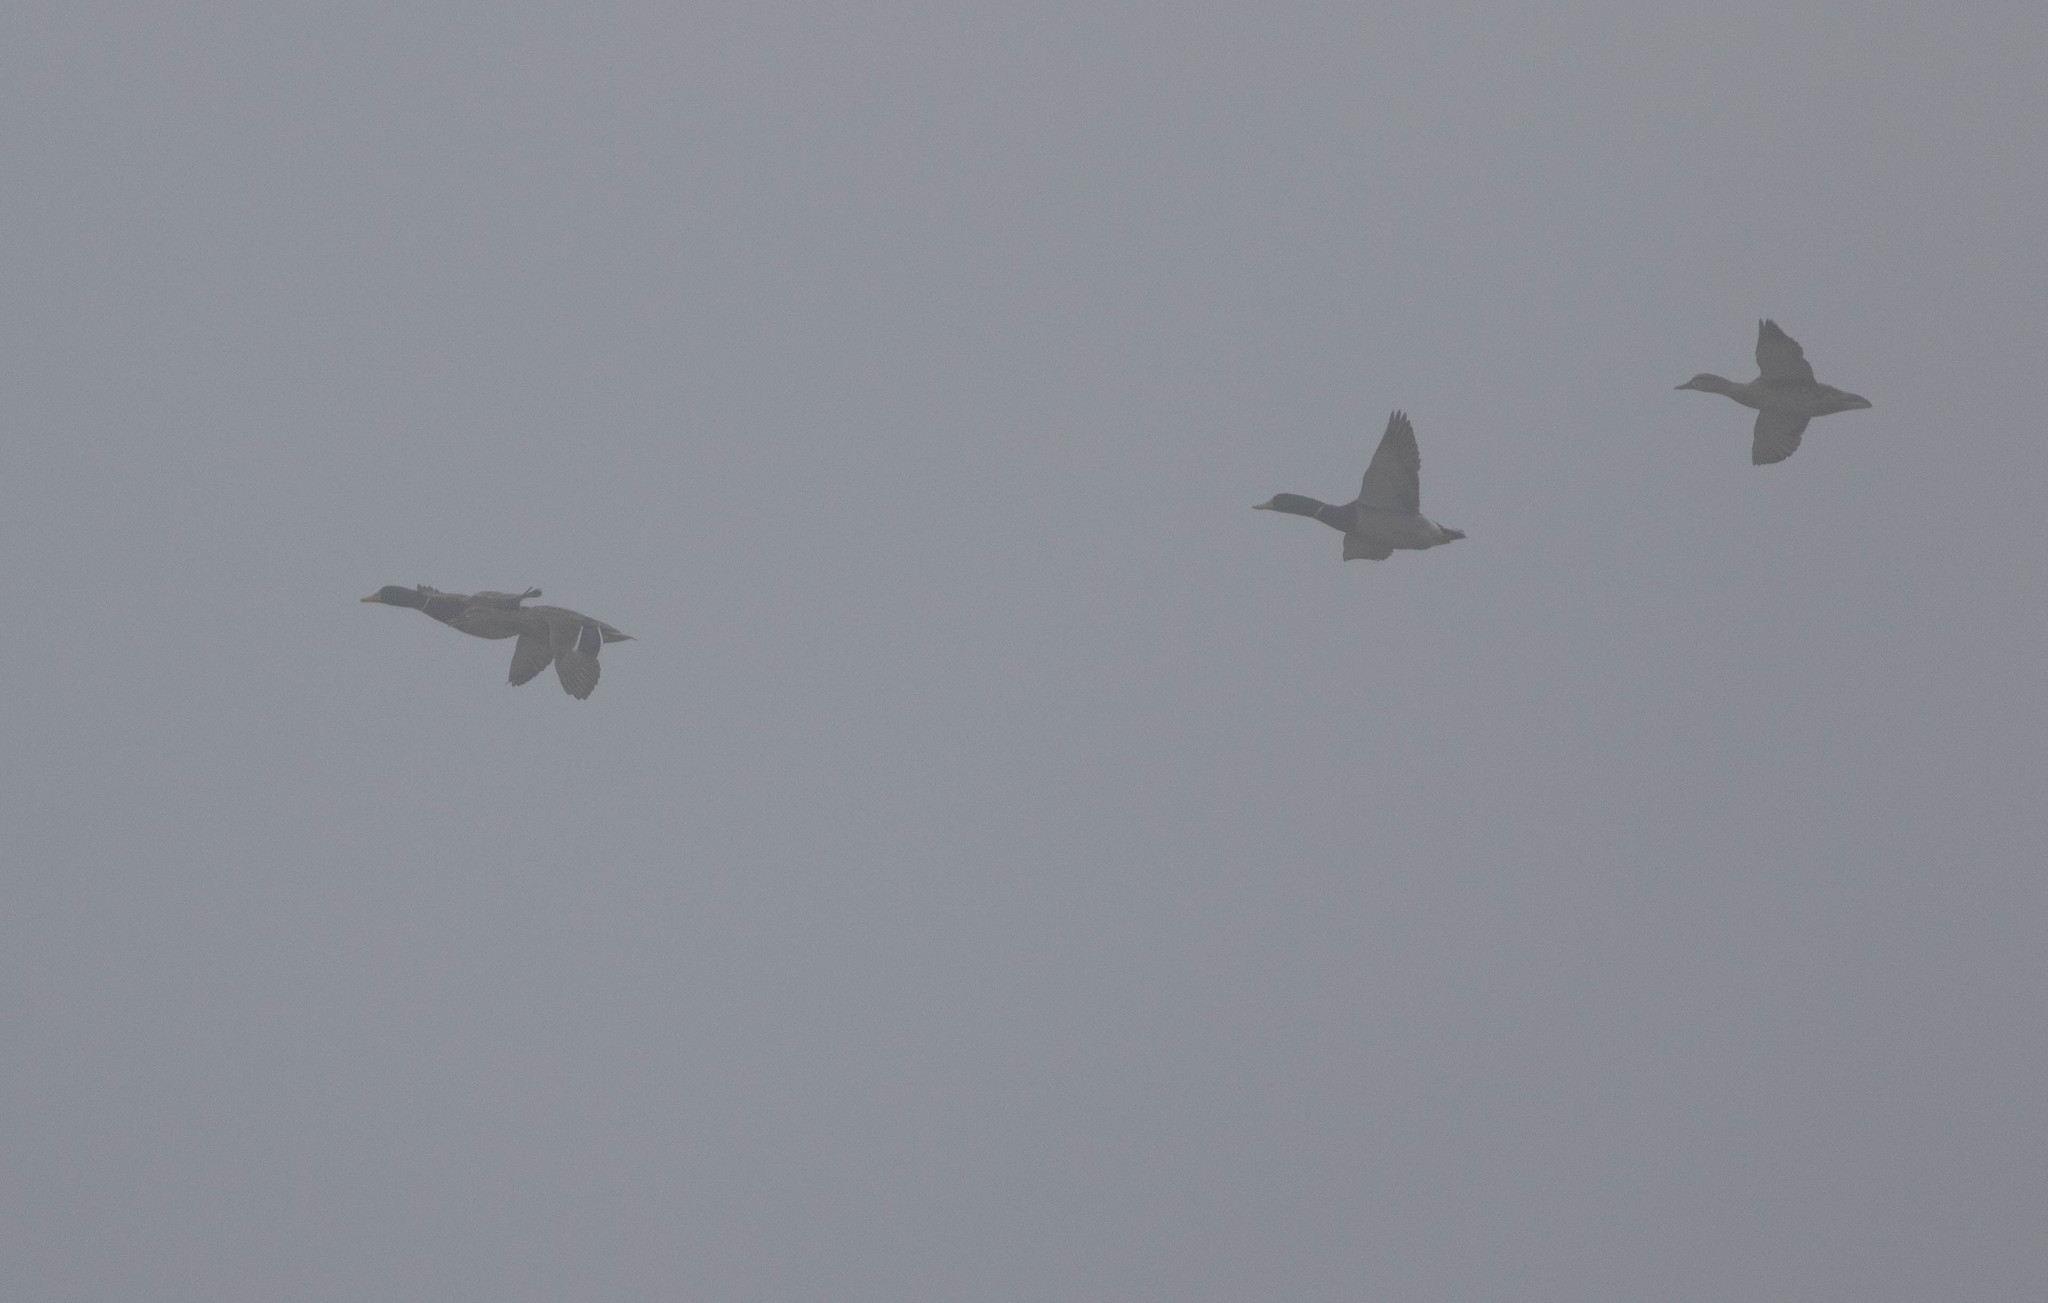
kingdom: Animalia
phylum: Chordata
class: Aves
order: Anseriformes
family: Anatidae
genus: Anas
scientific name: Anas platyrhynchos
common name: Mallard
